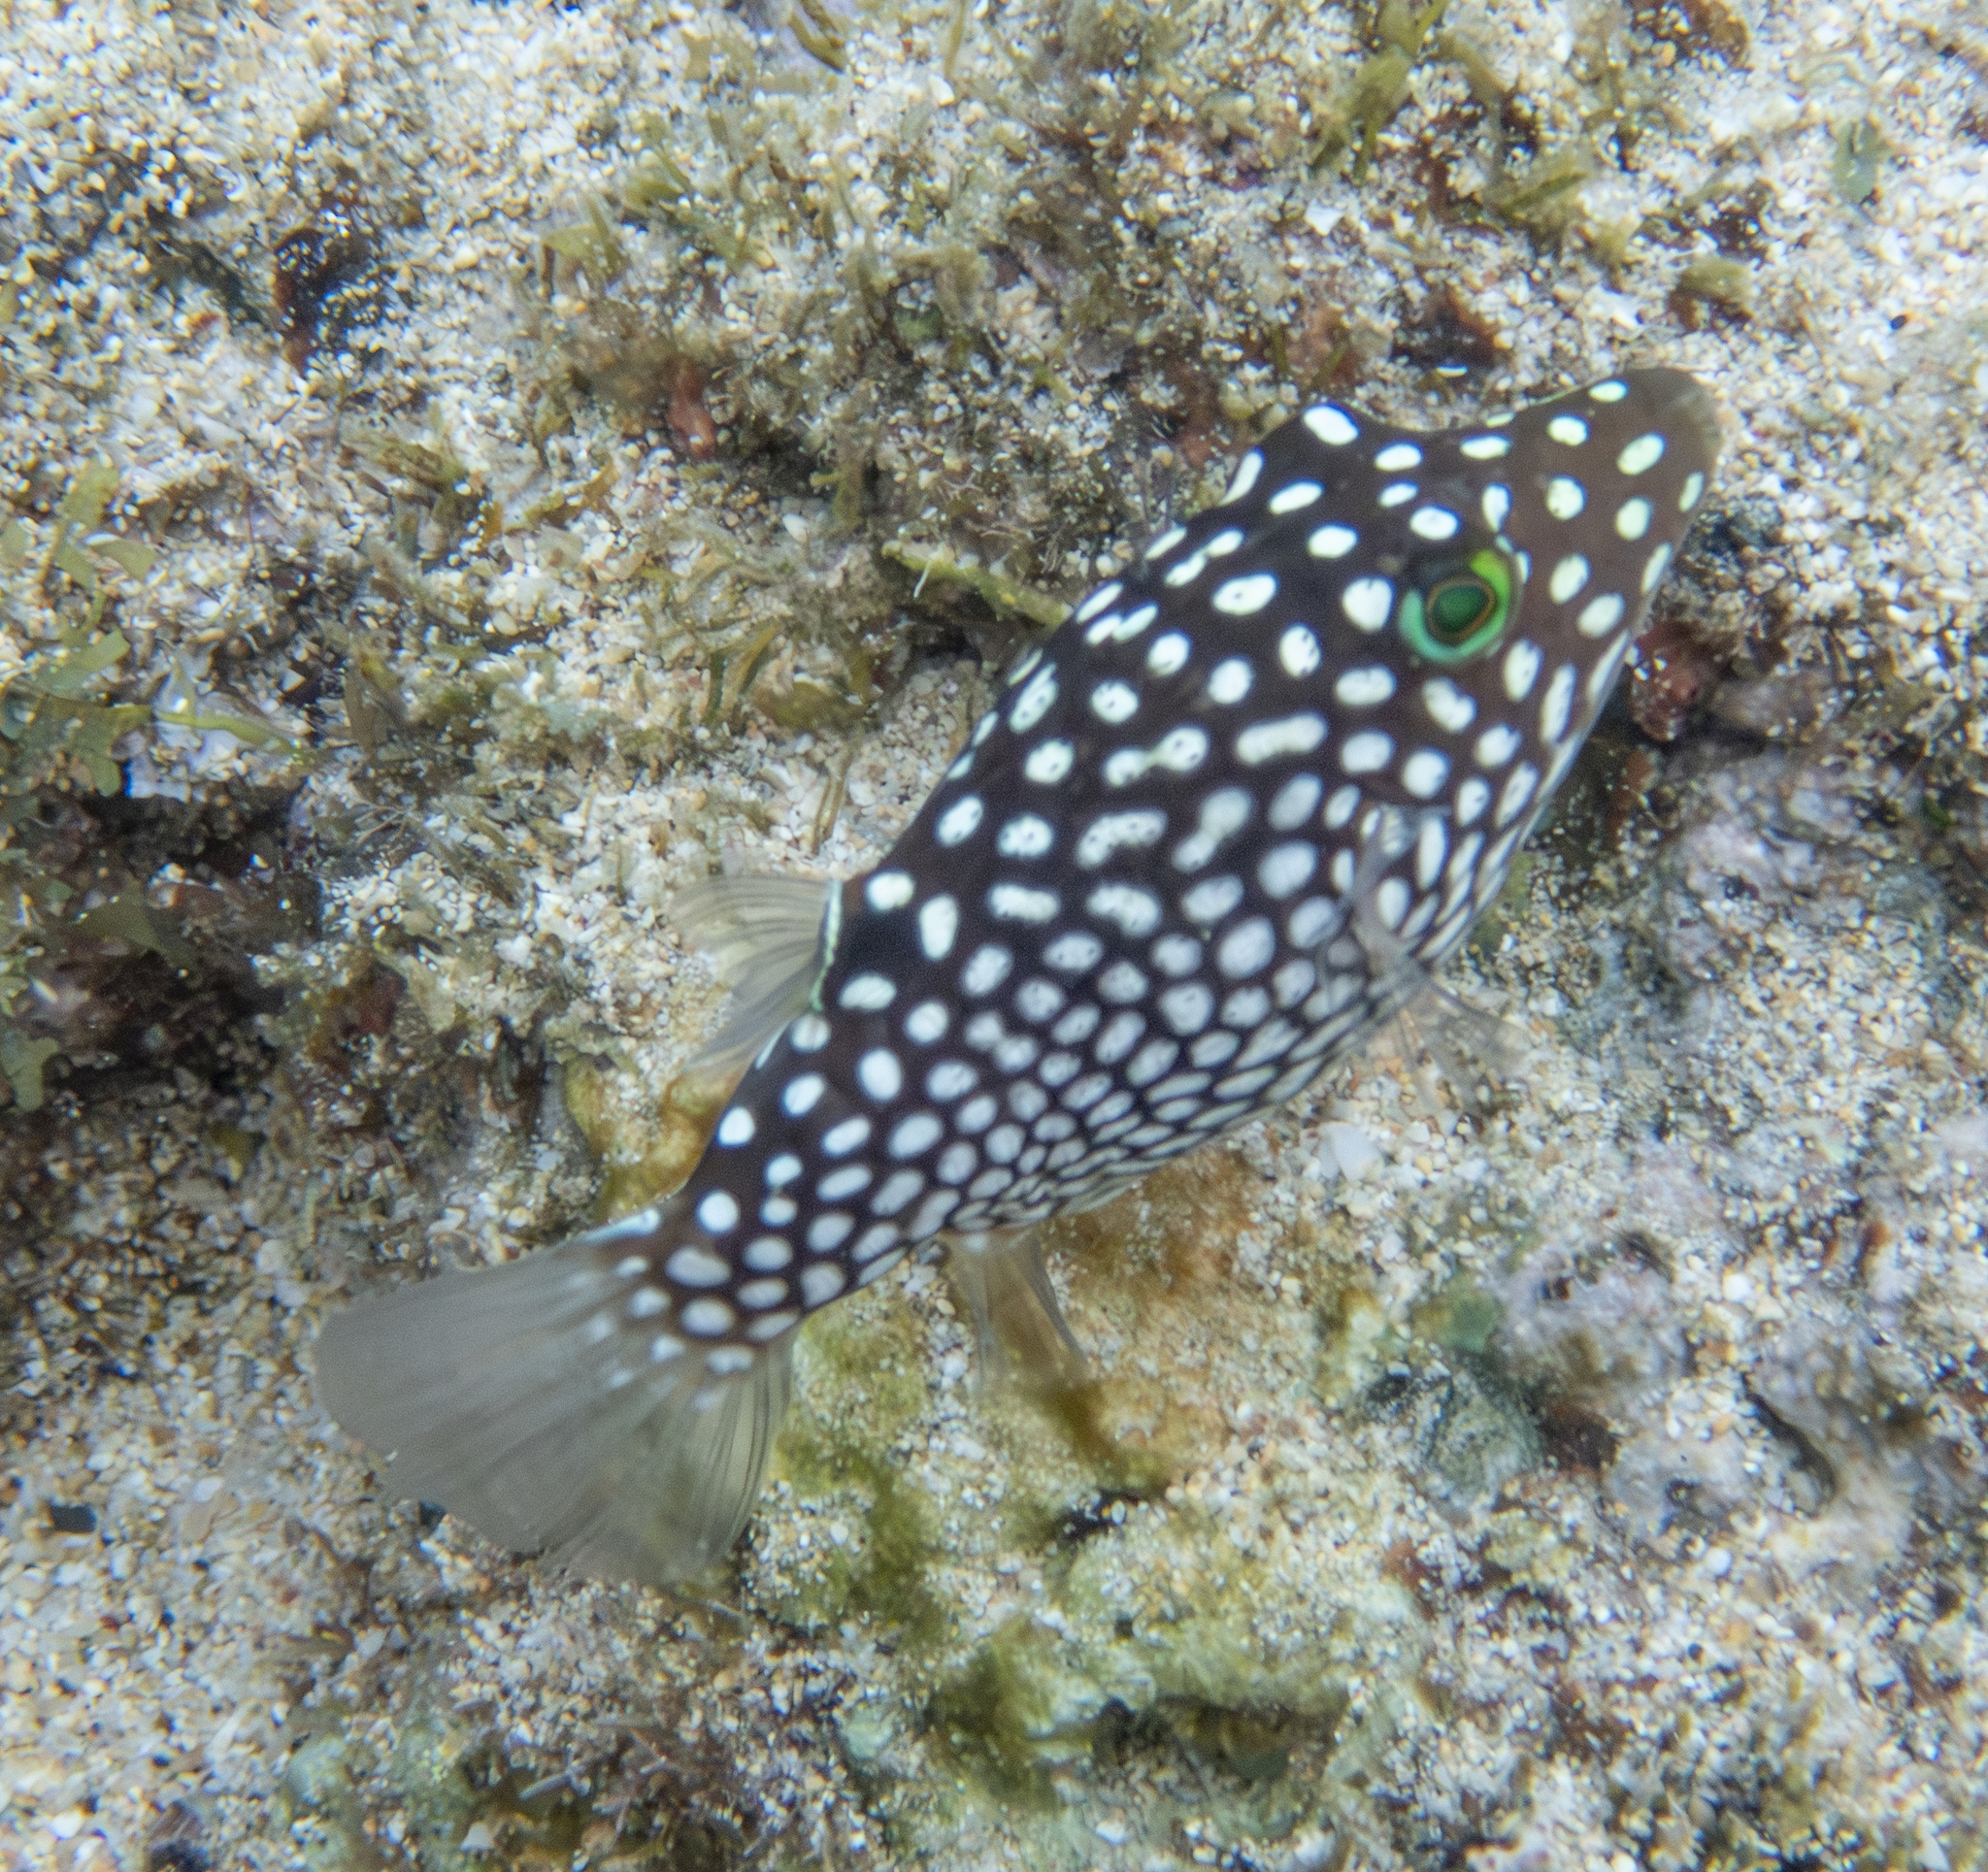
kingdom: Animalia
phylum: Chordata
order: Tetraodontiformes
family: Tetraodontidae
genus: Canthigaster
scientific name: Canthigaster jactator
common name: Hawaiian whitespotted toby
